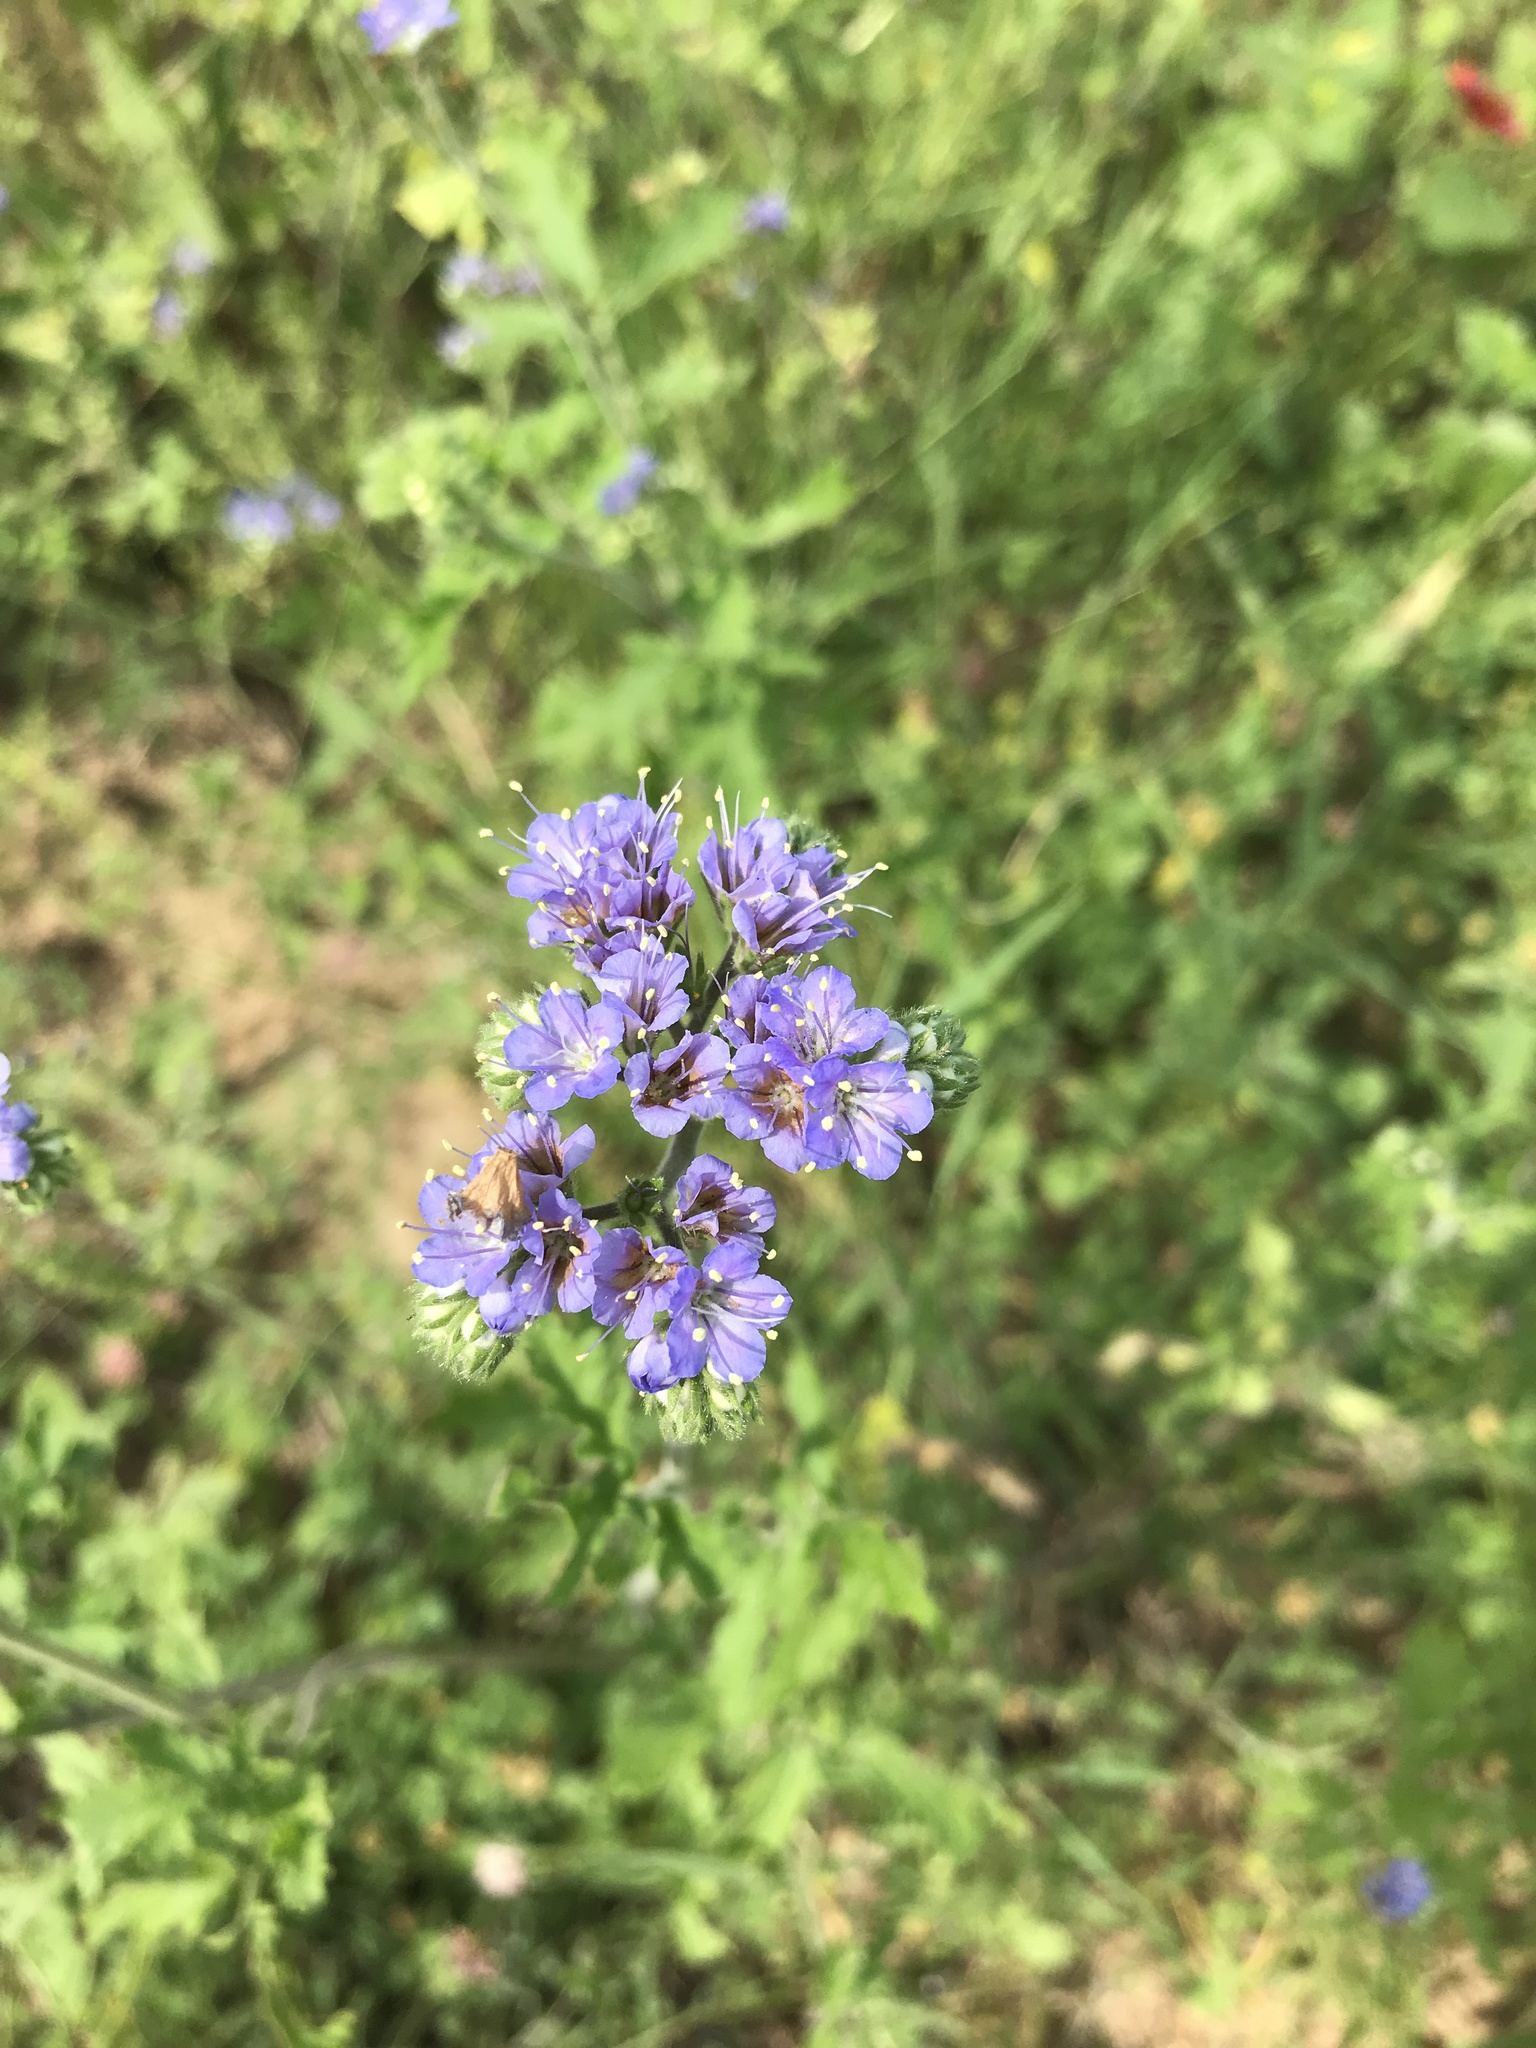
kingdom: Plantae
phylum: Tracheophyta
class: Magnoliopsida
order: Boraginales
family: Hydrophyllaceae
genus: Phacelia
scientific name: Phacelia congesta
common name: Blue curls
